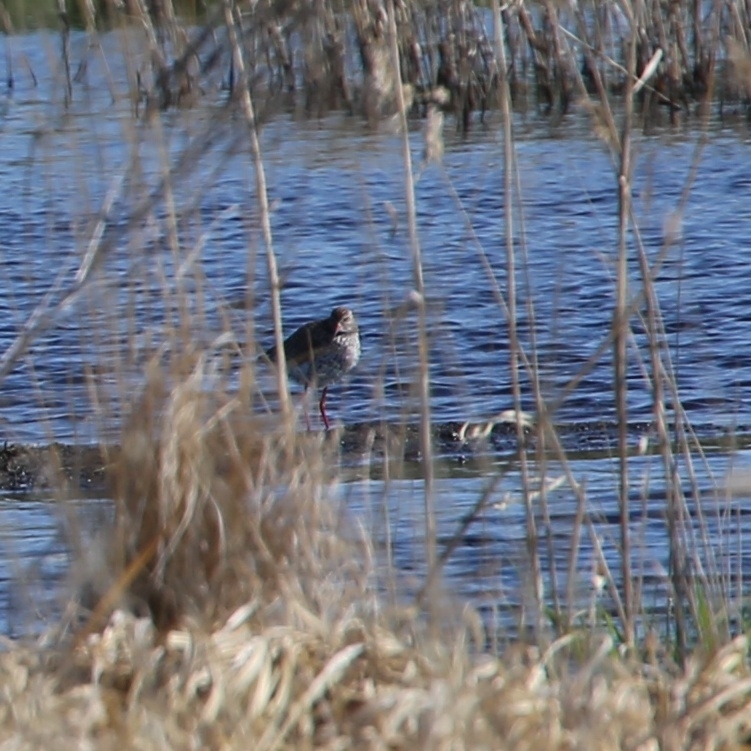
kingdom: Animalia
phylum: Chordata
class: Aves
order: Charadriiformes
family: Scolopacidae
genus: Tringa
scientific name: Tringa totanus
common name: Common redshank
